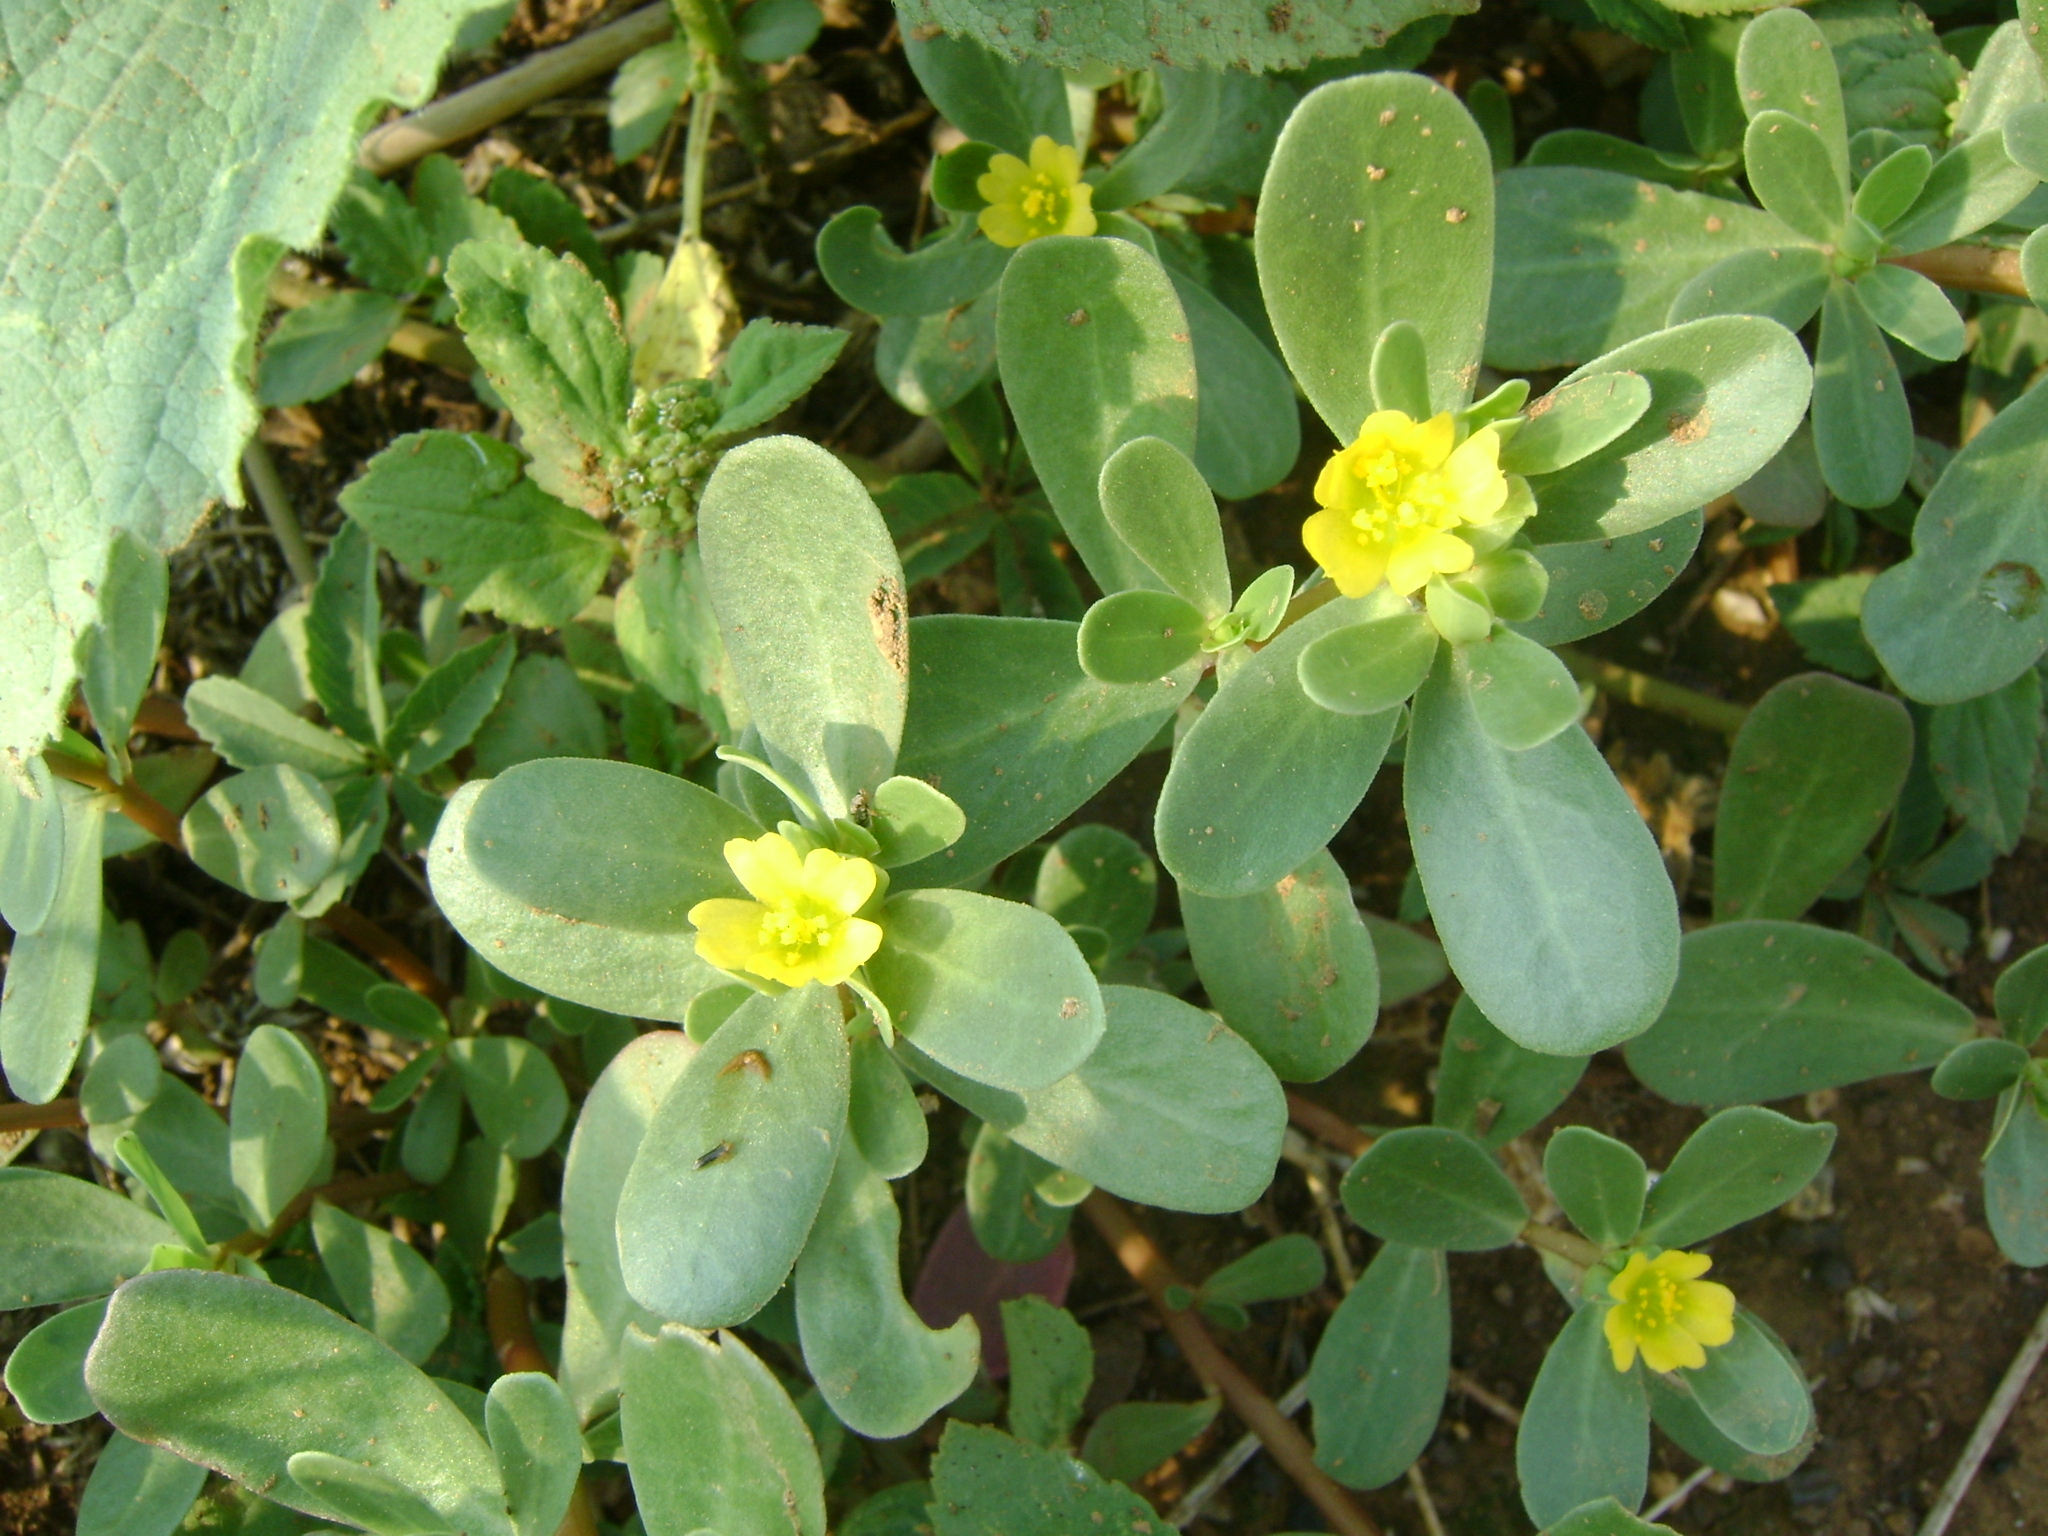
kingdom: Plantae
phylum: Tracheophyta
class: Magnoliopsida
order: Caryophyllales
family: Portulacaceae
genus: Portulaca
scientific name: Portulaca oleracea
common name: Common purslane
